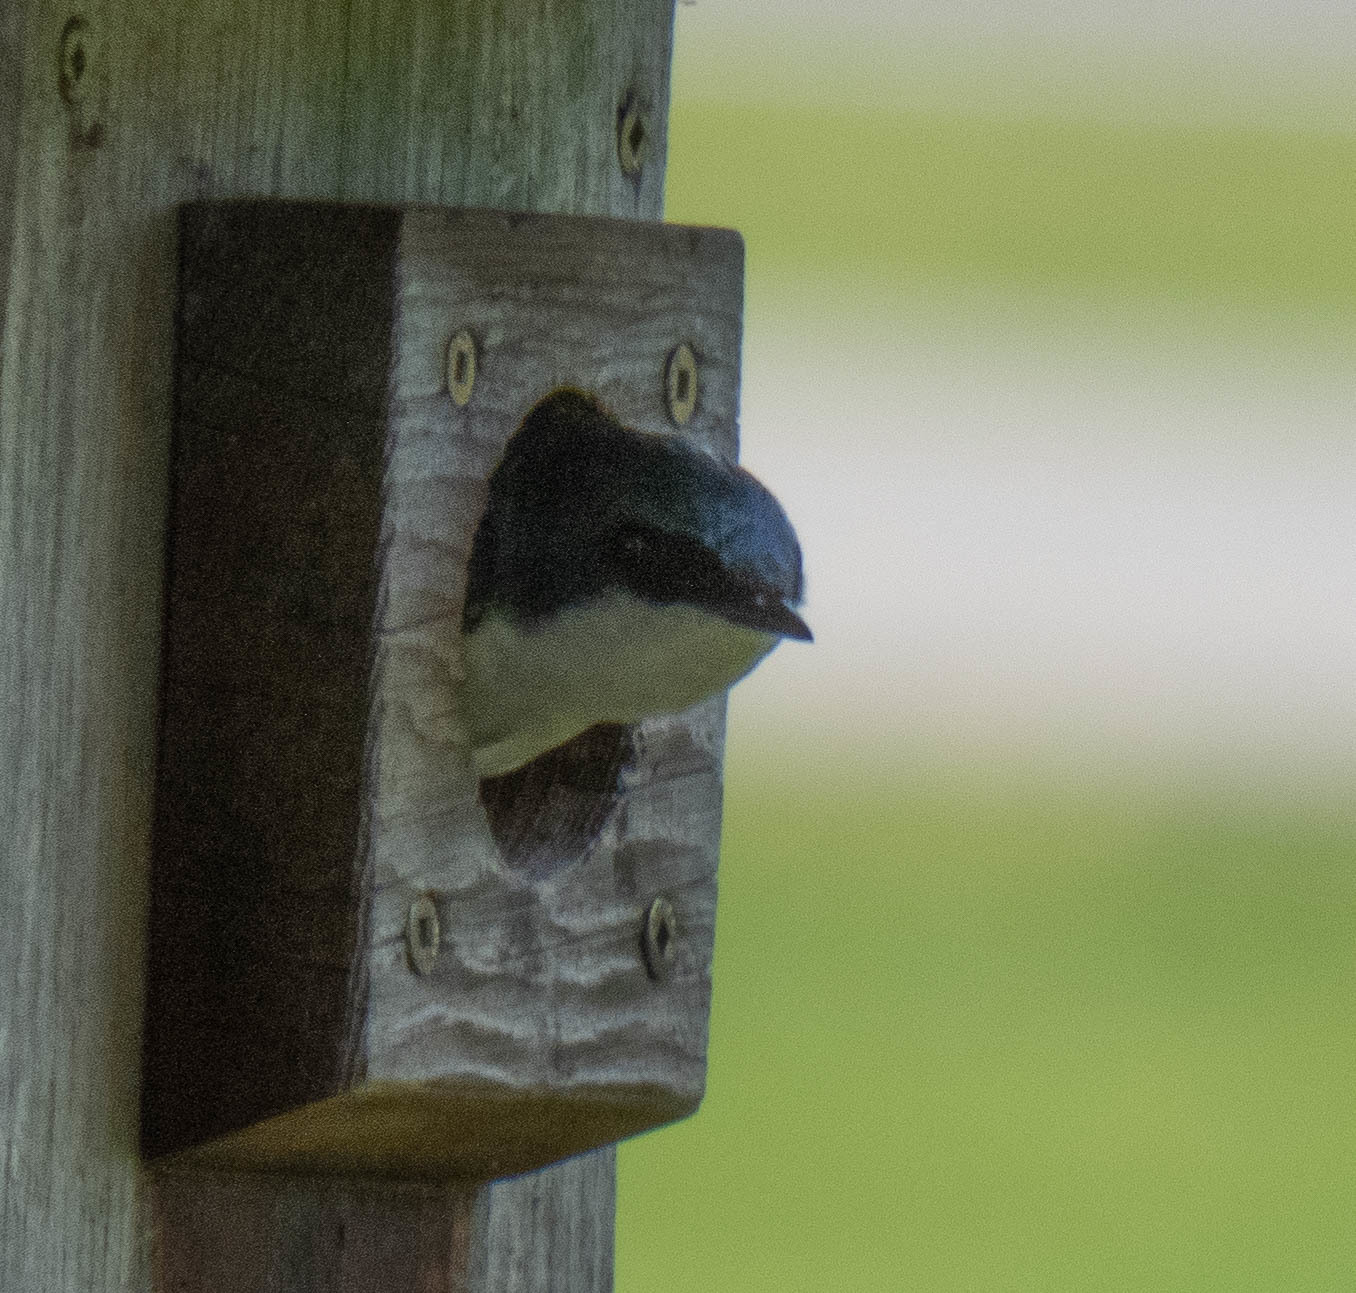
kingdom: Animalia
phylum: Chordata
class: Aves
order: Passeriformes
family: Hirundinidae
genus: Tachycineta
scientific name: Tachycineta bicolor
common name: Tree swallow
